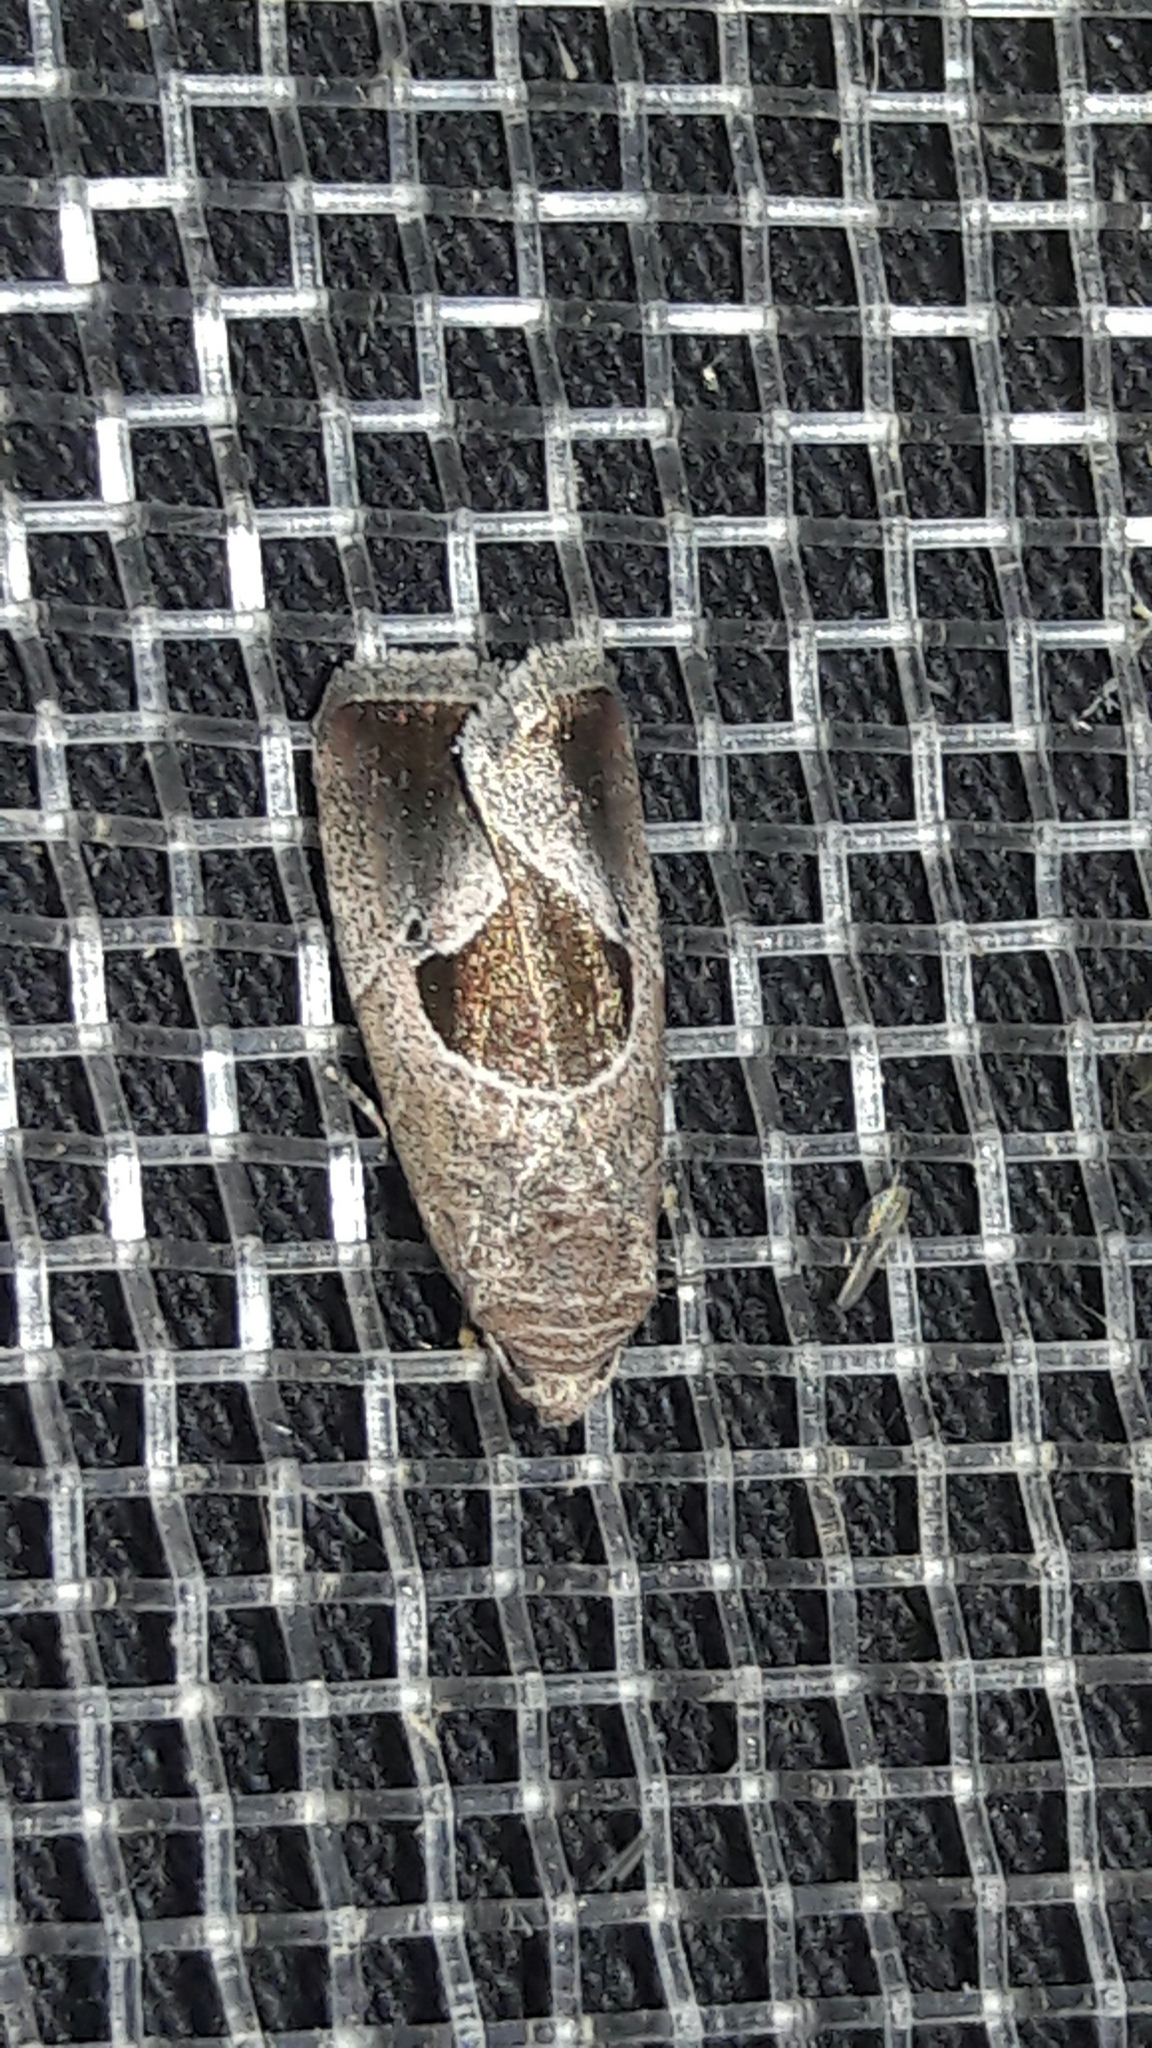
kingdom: Animalia
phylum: Arthropoda
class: Insecta
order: Lepidoptera
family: Noctuidae
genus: Elaphria
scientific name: Elaphria deltoides
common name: Cutworm moth
